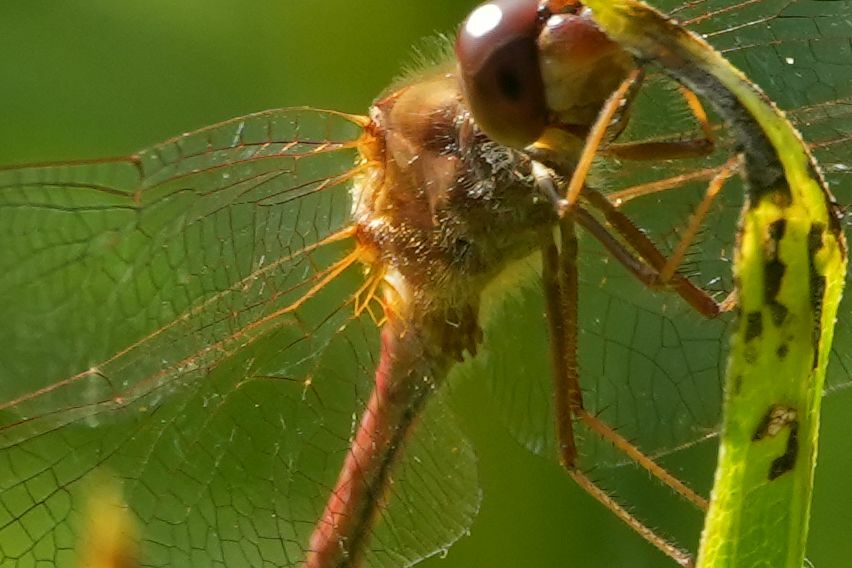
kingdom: Animalia
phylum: Arthropoda
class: Insecta
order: Odonata
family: Libellulidae
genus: Sympetrum
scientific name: Sympetrum vicinum
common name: Autumn meadowhawk
